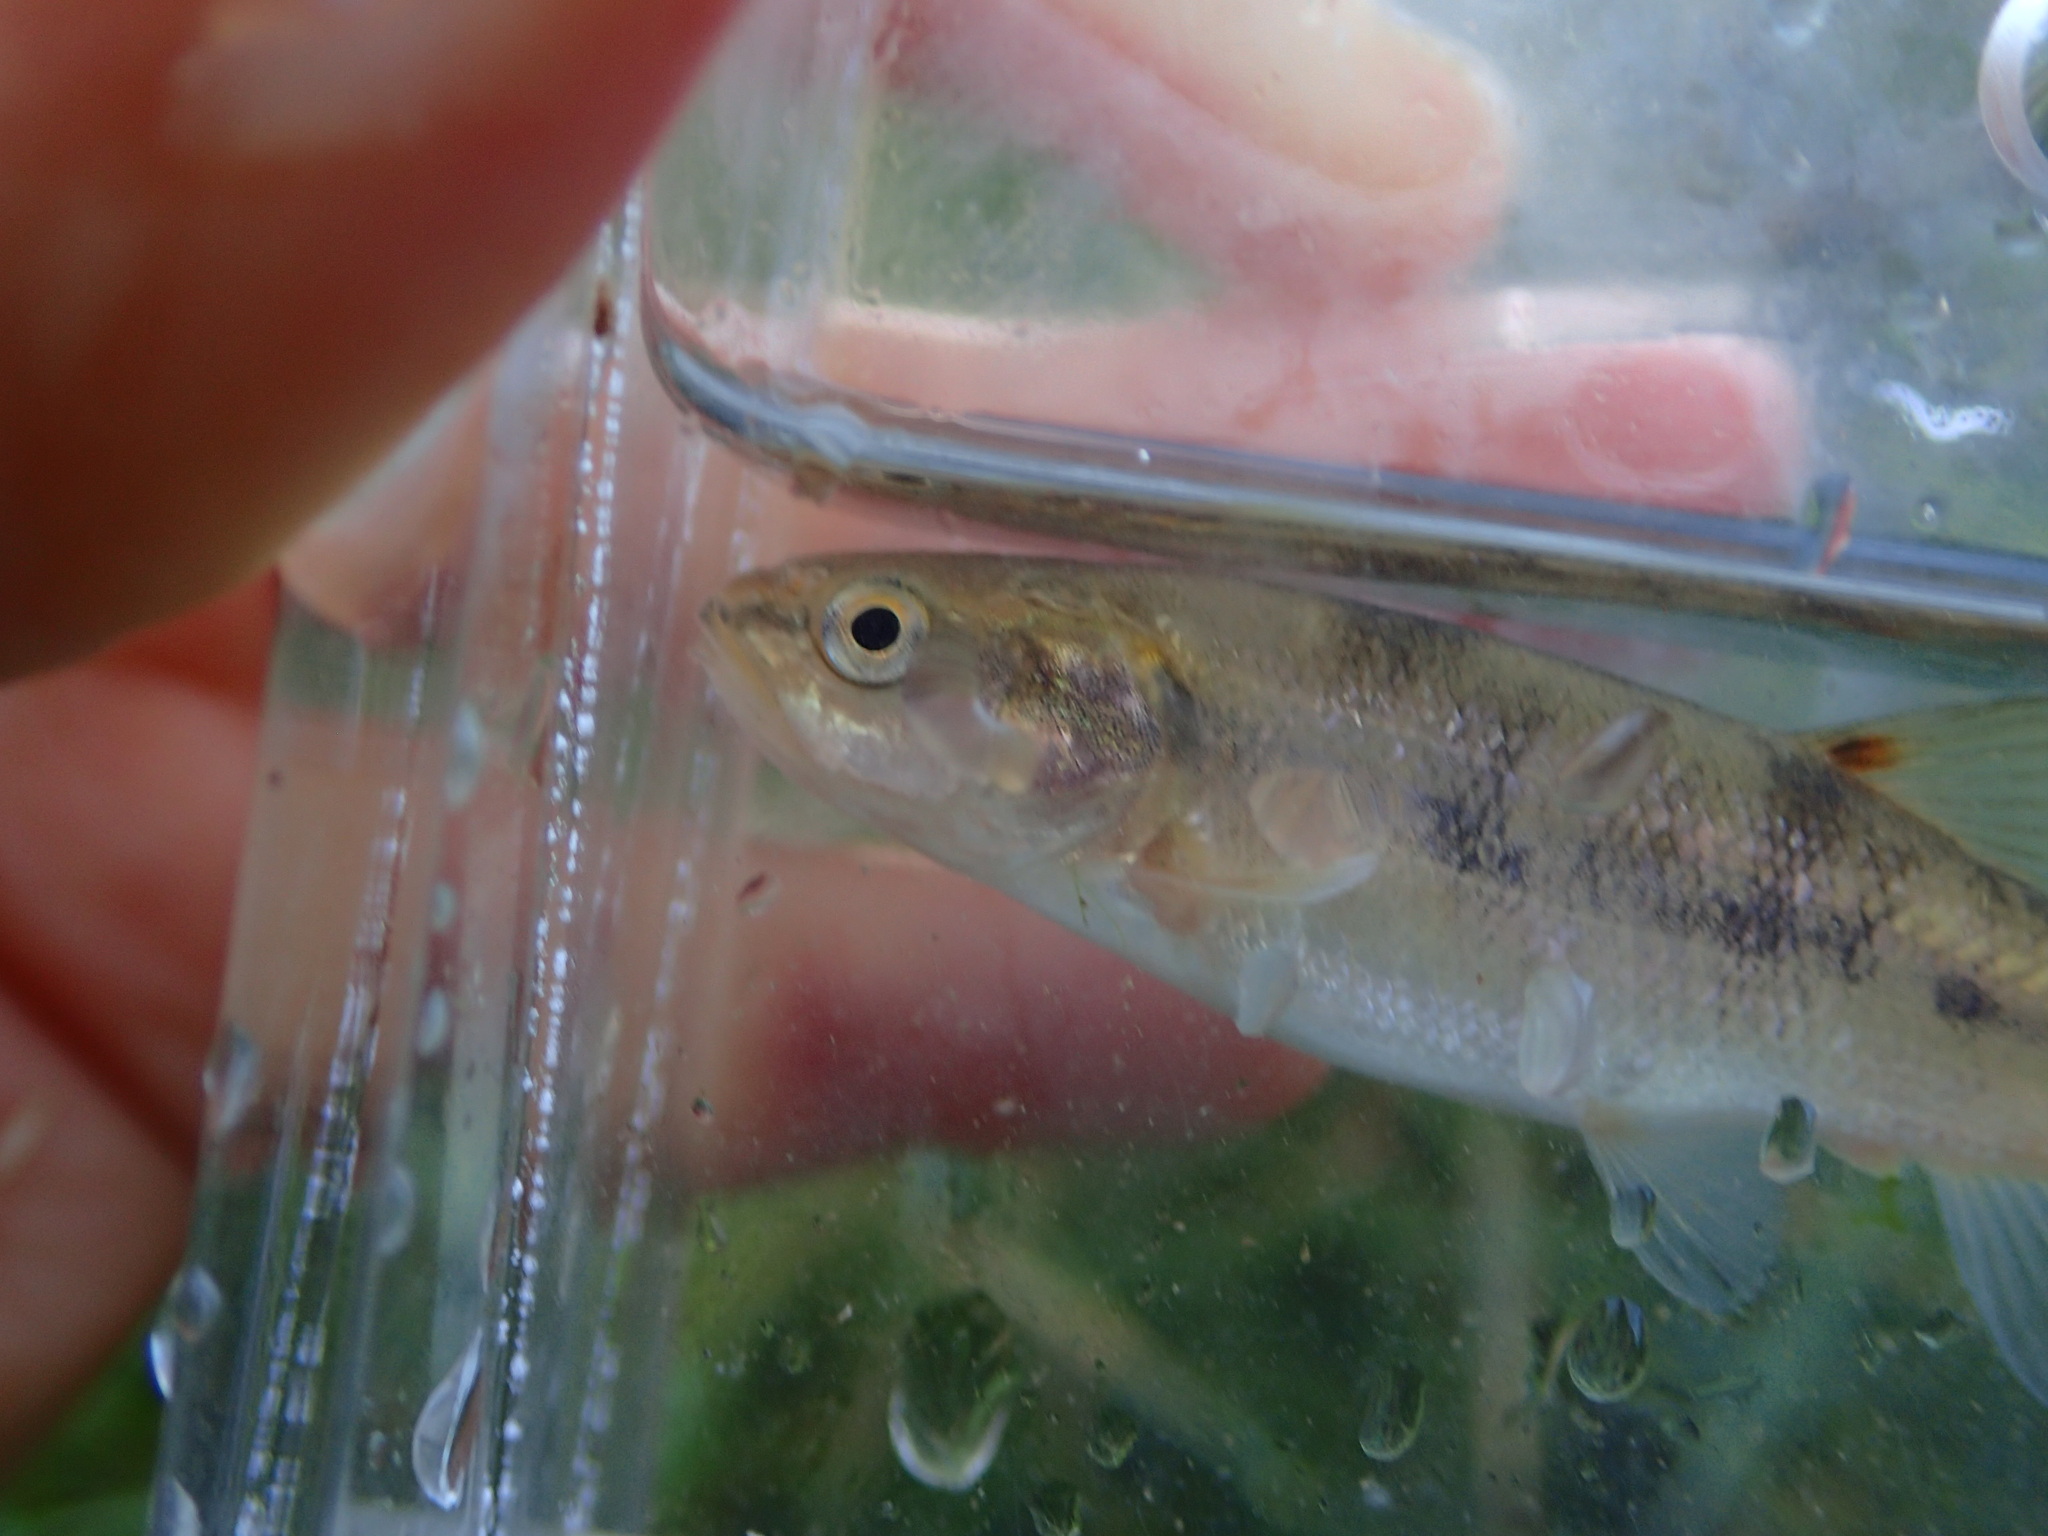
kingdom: Animalia
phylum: Chordata
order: Cypriniformes
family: Cyprinidae
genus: Semotilus
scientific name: Semotilus atromaculatus
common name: Creek chub
